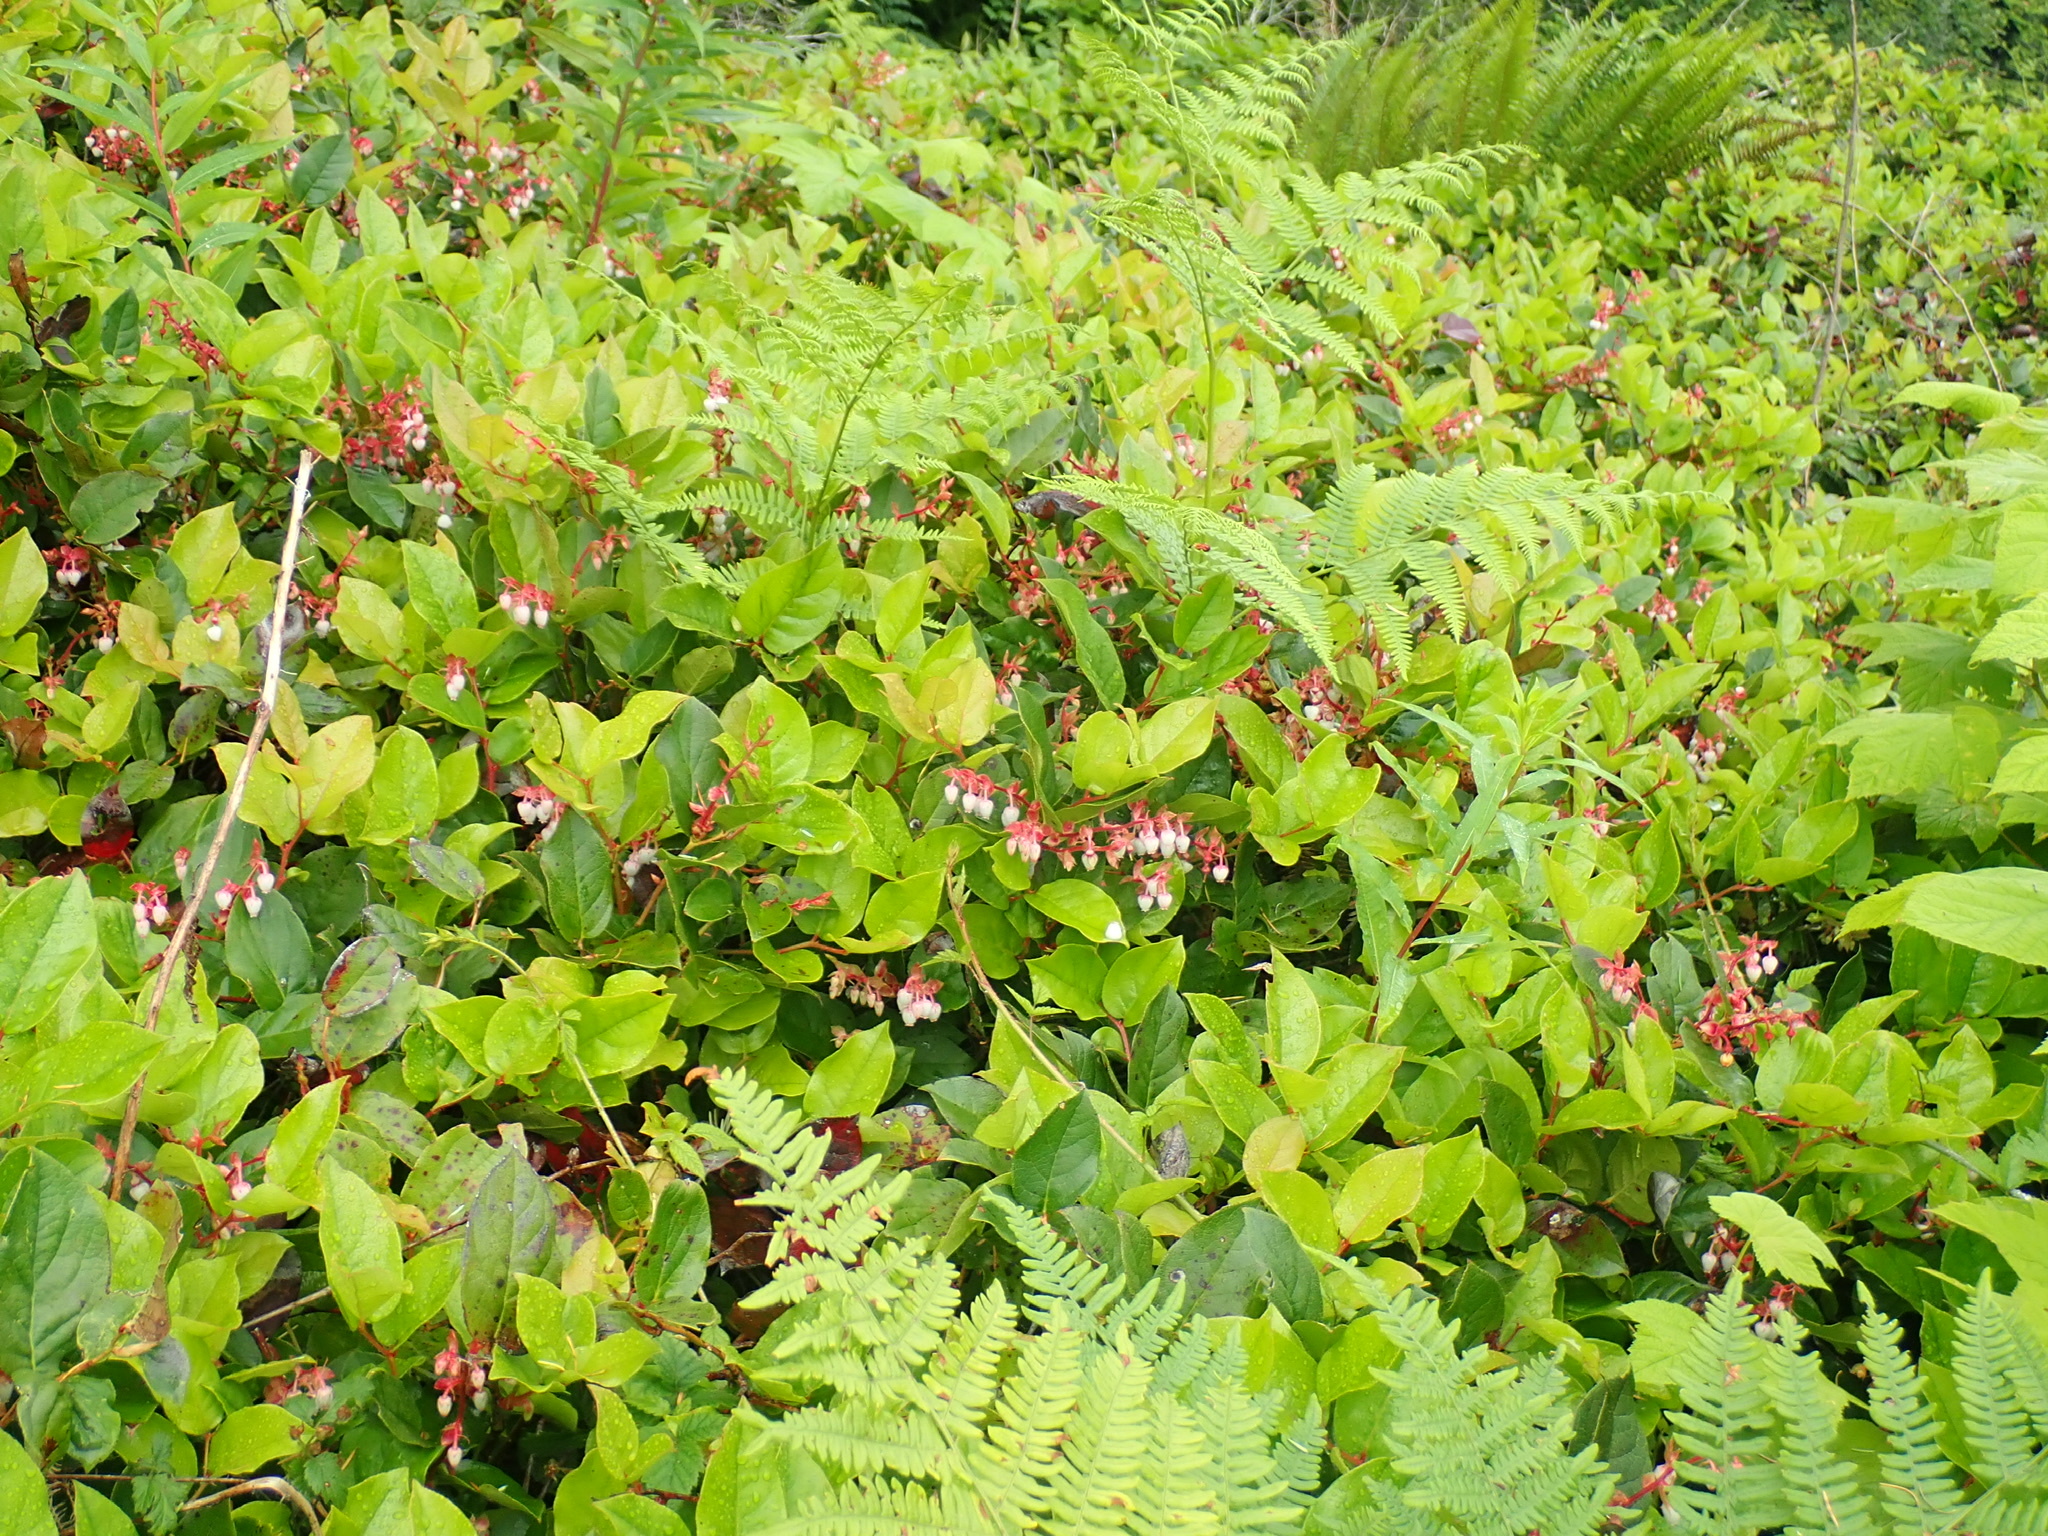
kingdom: Plantae
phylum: Tracheophyta
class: Magnoliopsida
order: Ericales
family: Ericaceae
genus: Gaultheria
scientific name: Gaultheria shallon
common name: Shallon
